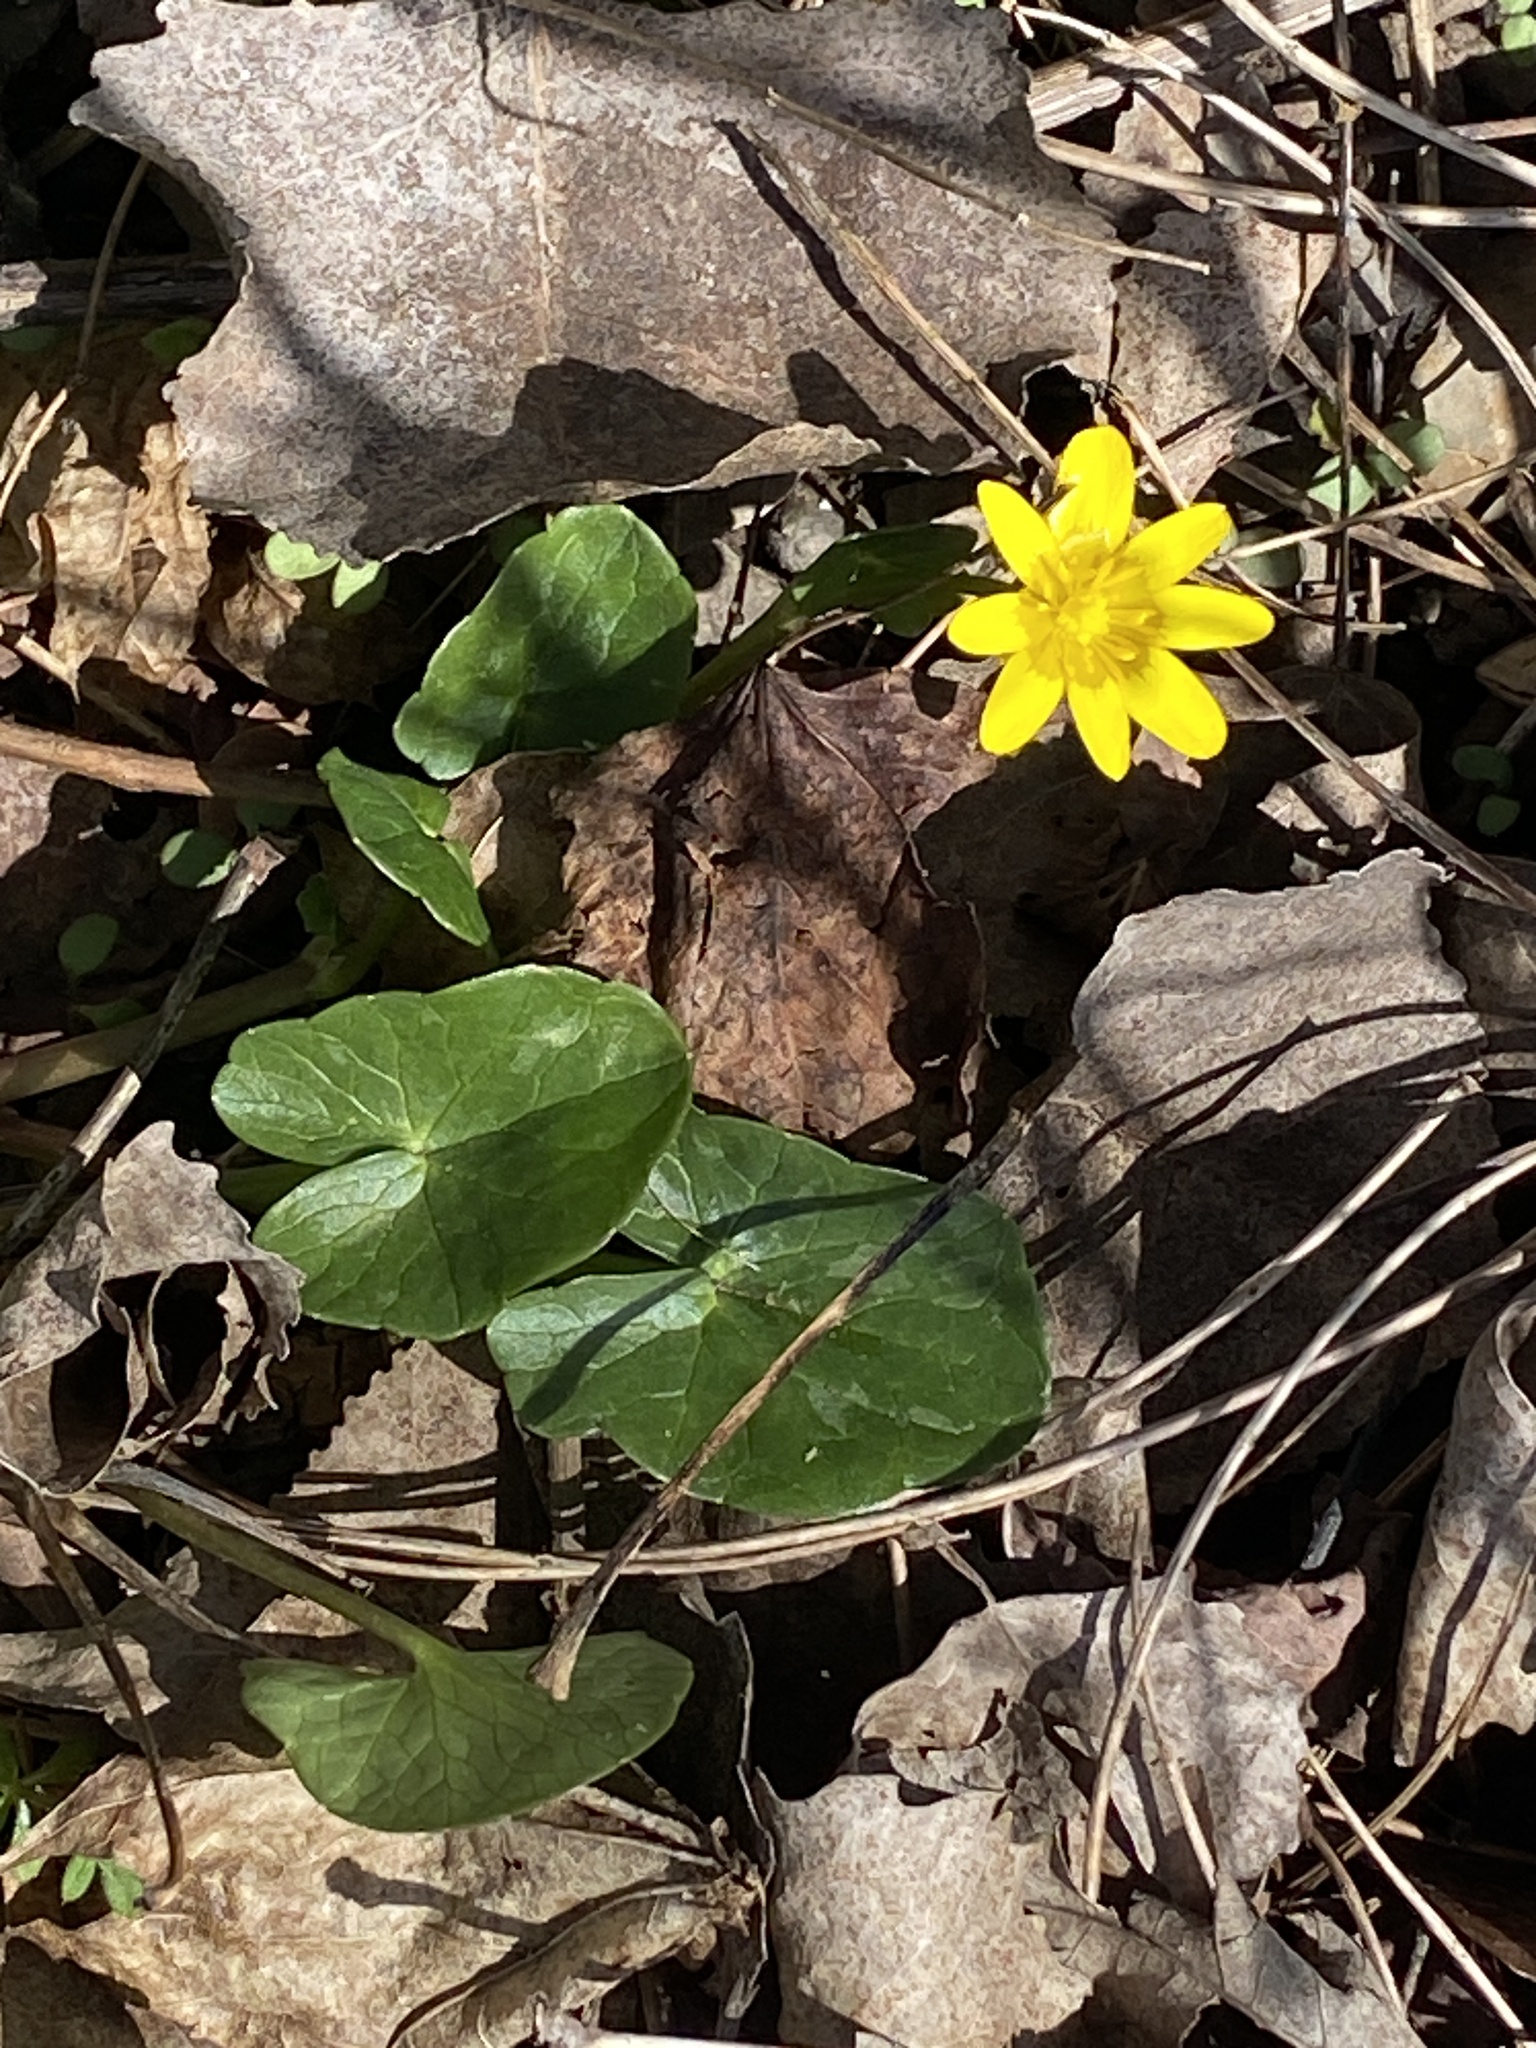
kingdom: Plantae
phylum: Tracheophyta
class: Magnoliopsida
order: Ranunculales
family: Ranunculaceae
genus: Ficaria
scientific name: Ficaria verna
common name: Lesser celandine
